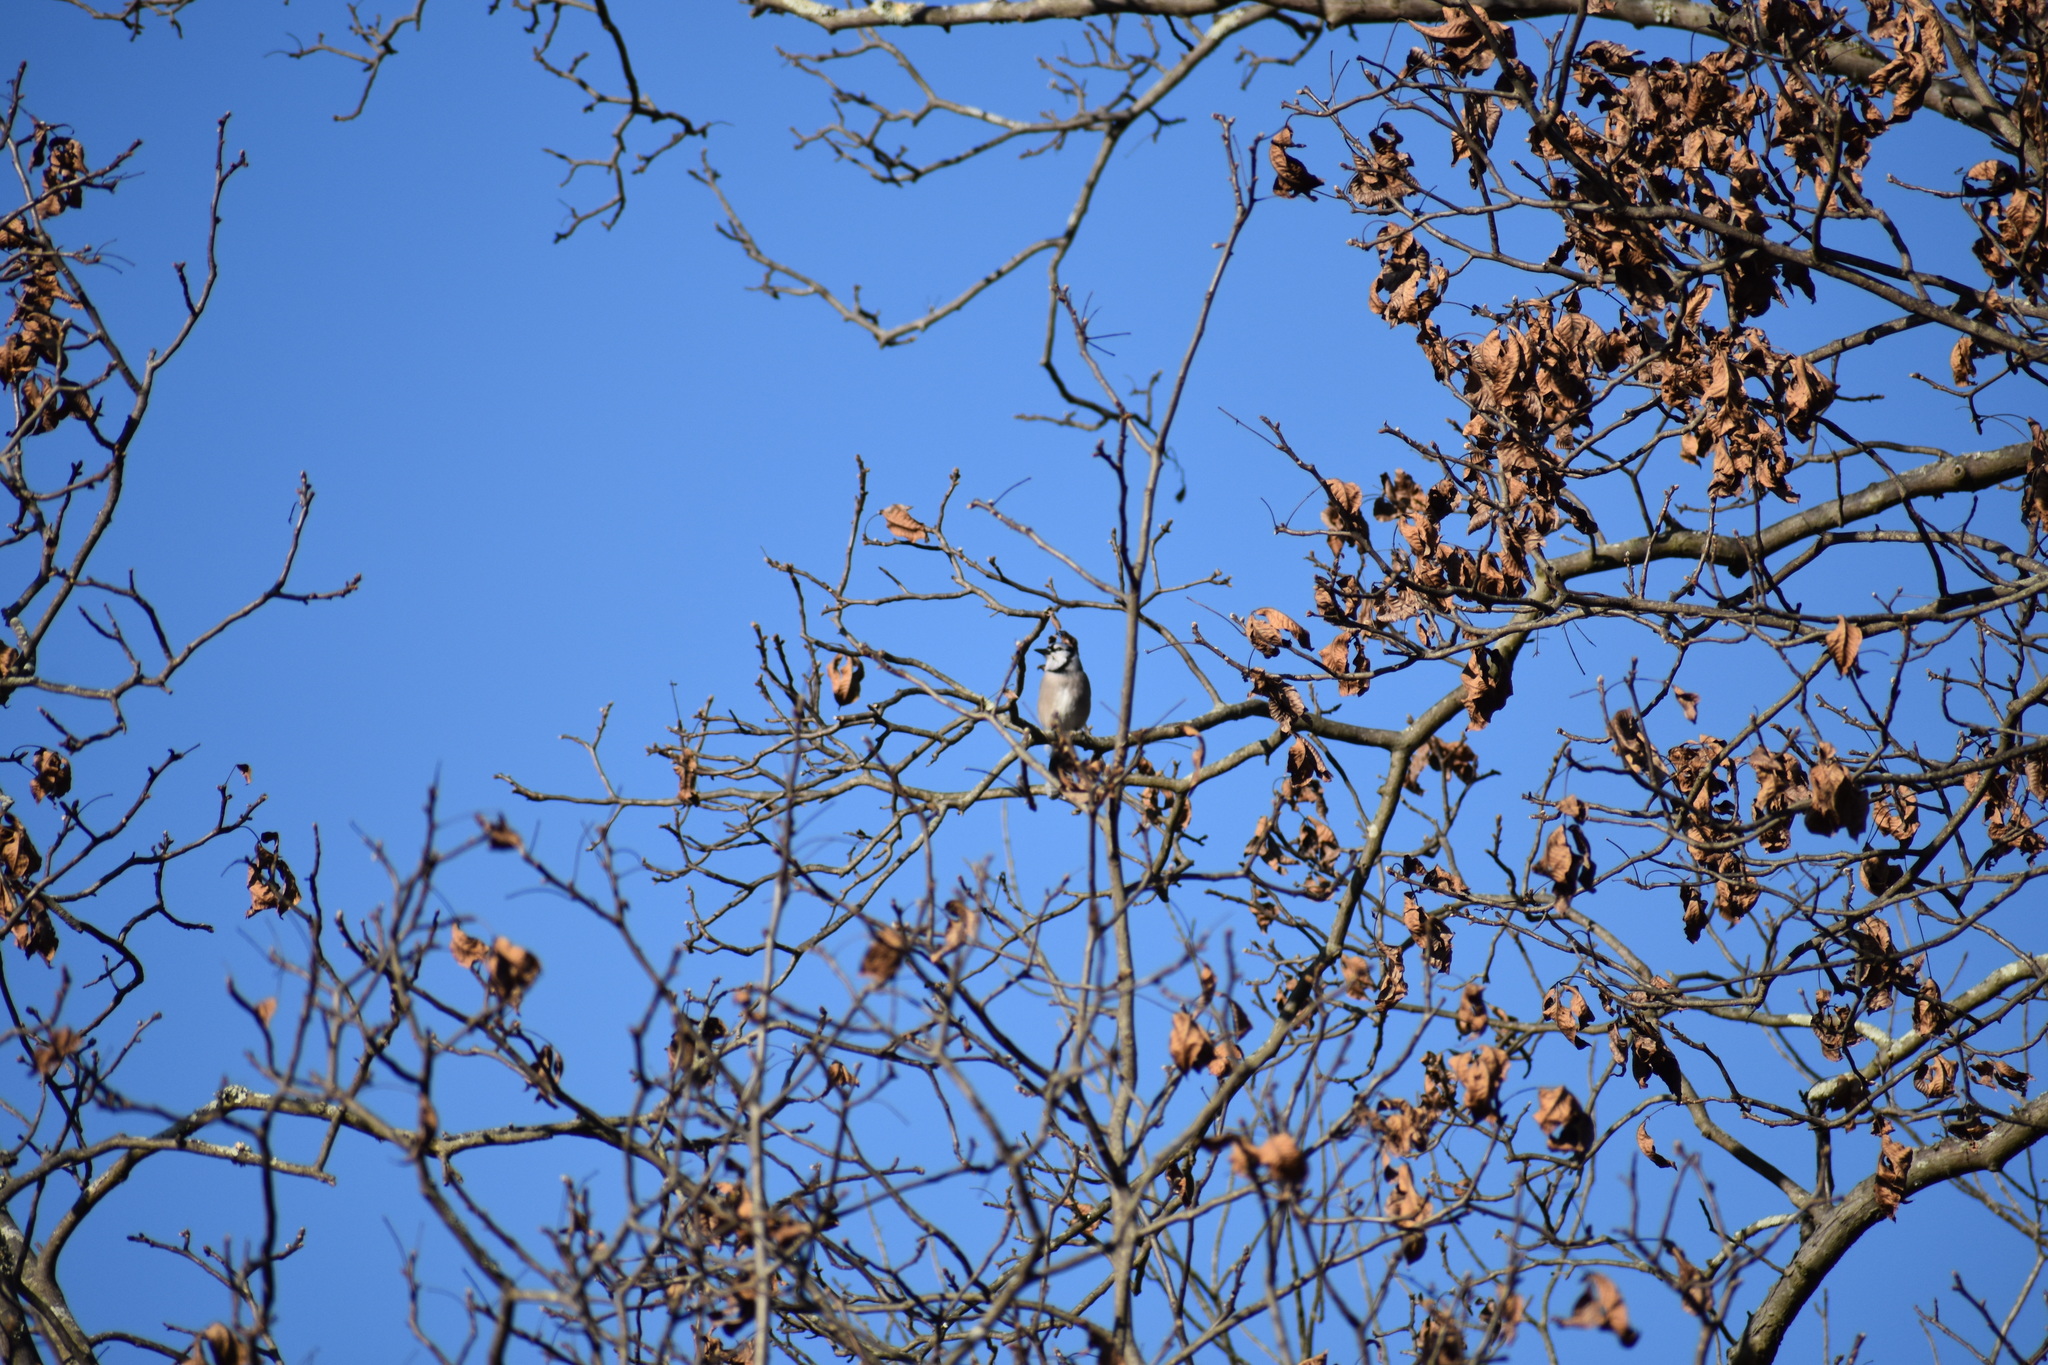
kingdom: Animalia
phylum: Chordata
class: Aves
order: Passeriformes
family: Corvidae
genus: Cyanocitta
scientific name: Cyanocitta cristata
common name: Blue jay
